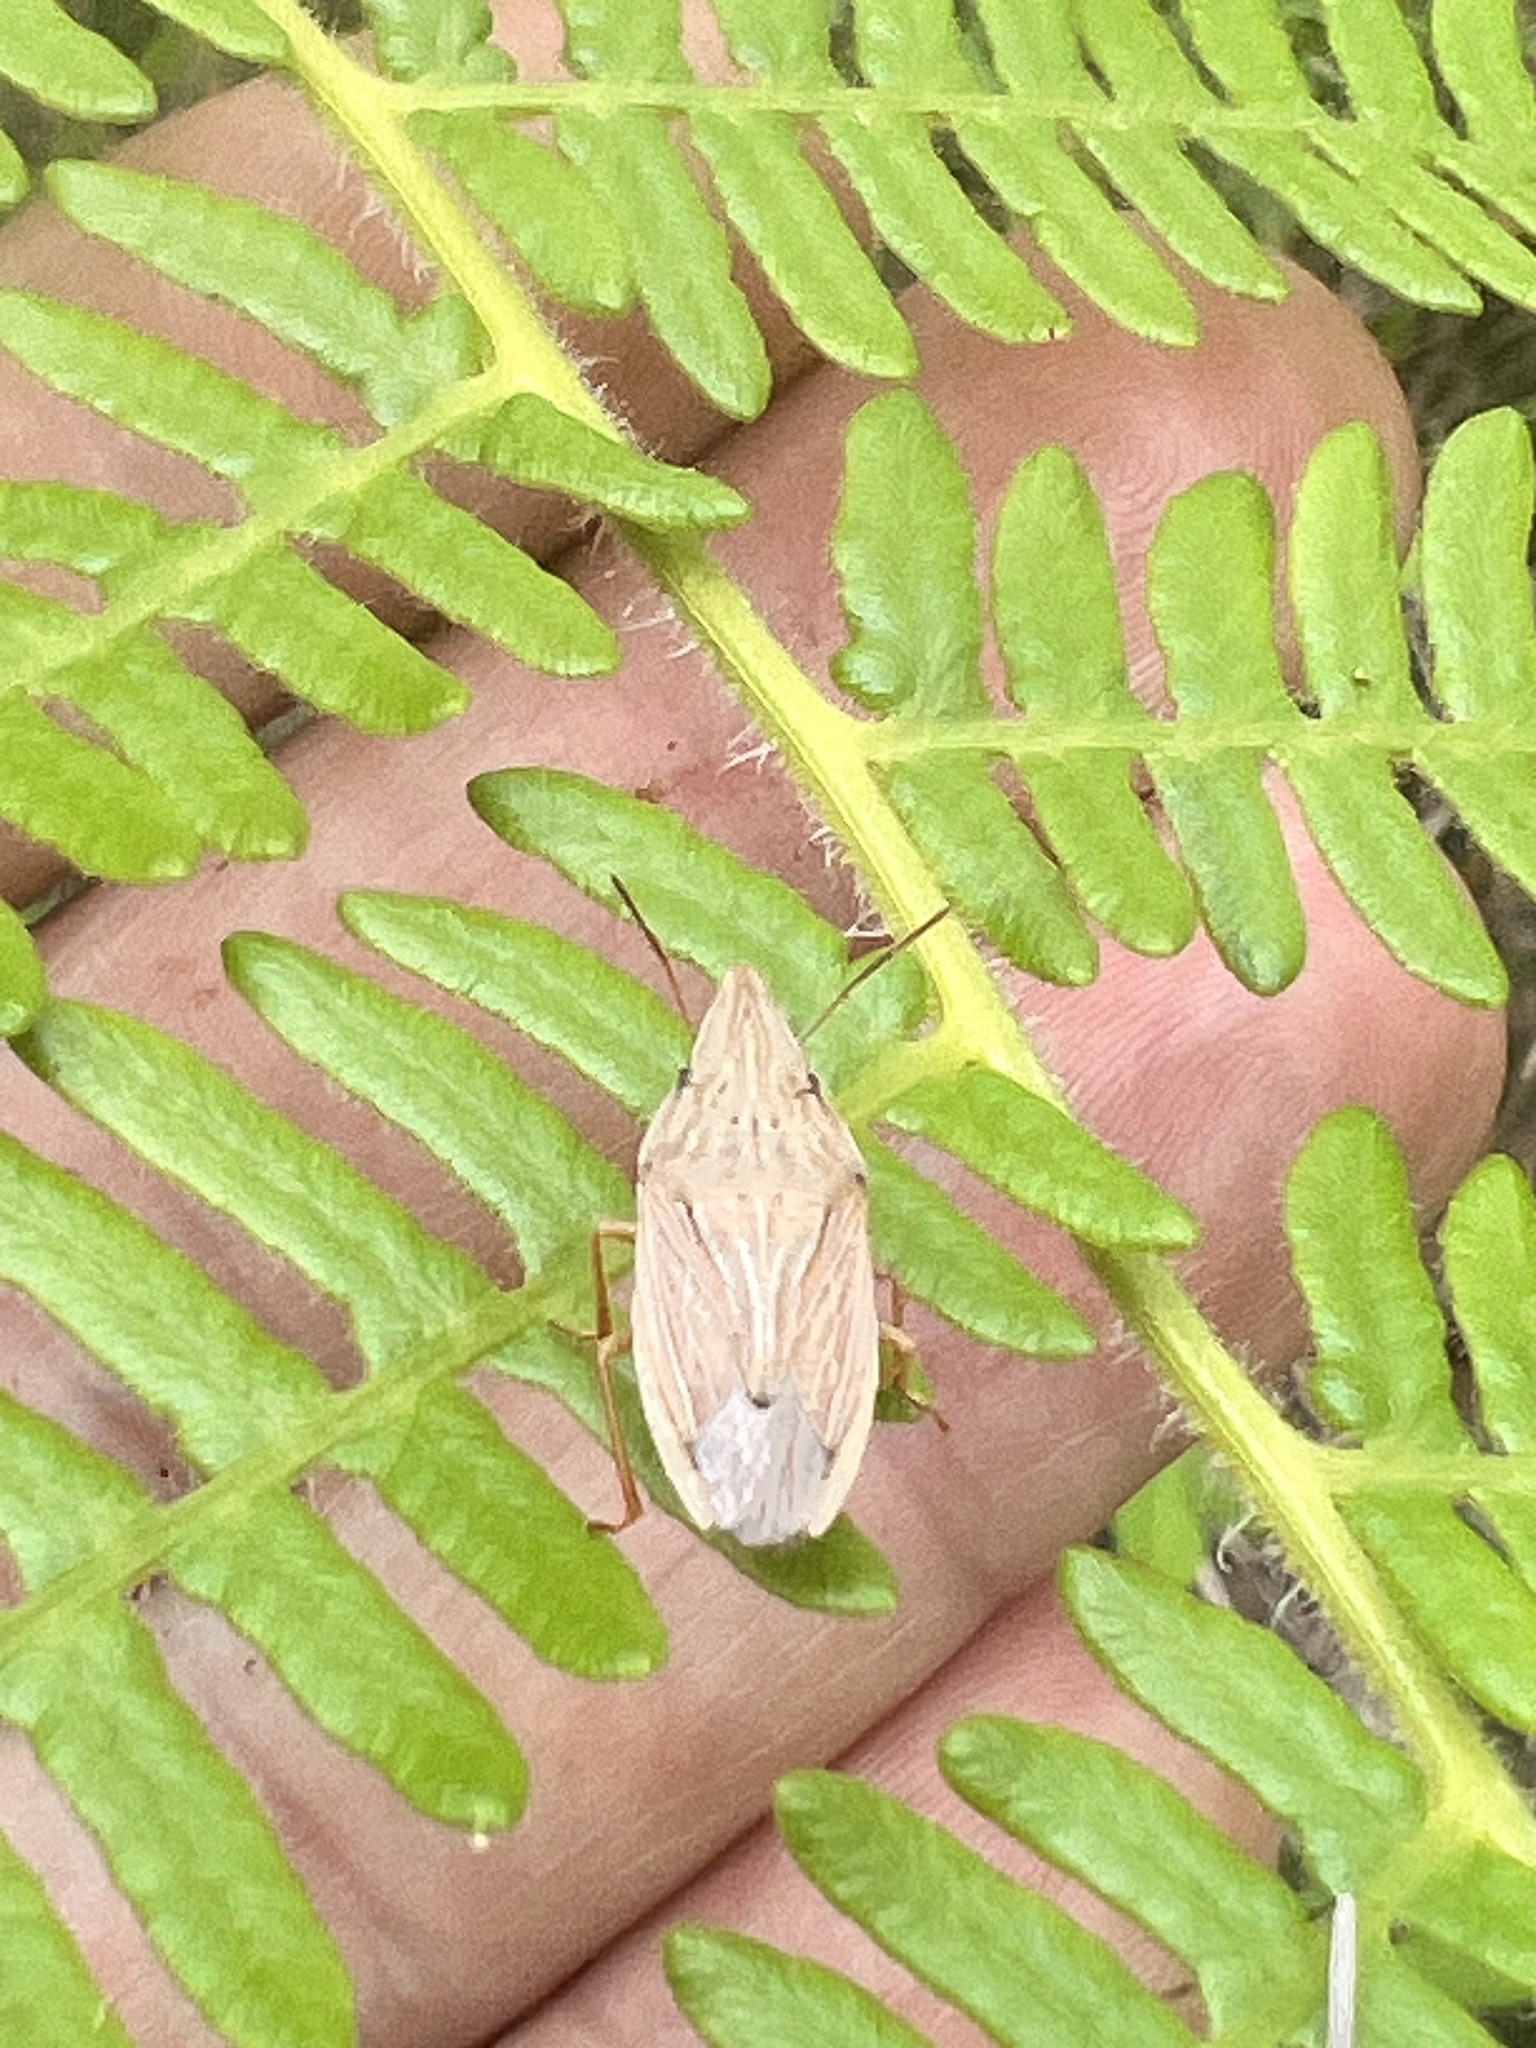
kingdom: Animalia
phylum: Arthropoda
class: Insecta
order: Hemiptera
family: Pentatomidae
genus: Menestheus
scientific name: Menestheus cuneatus
